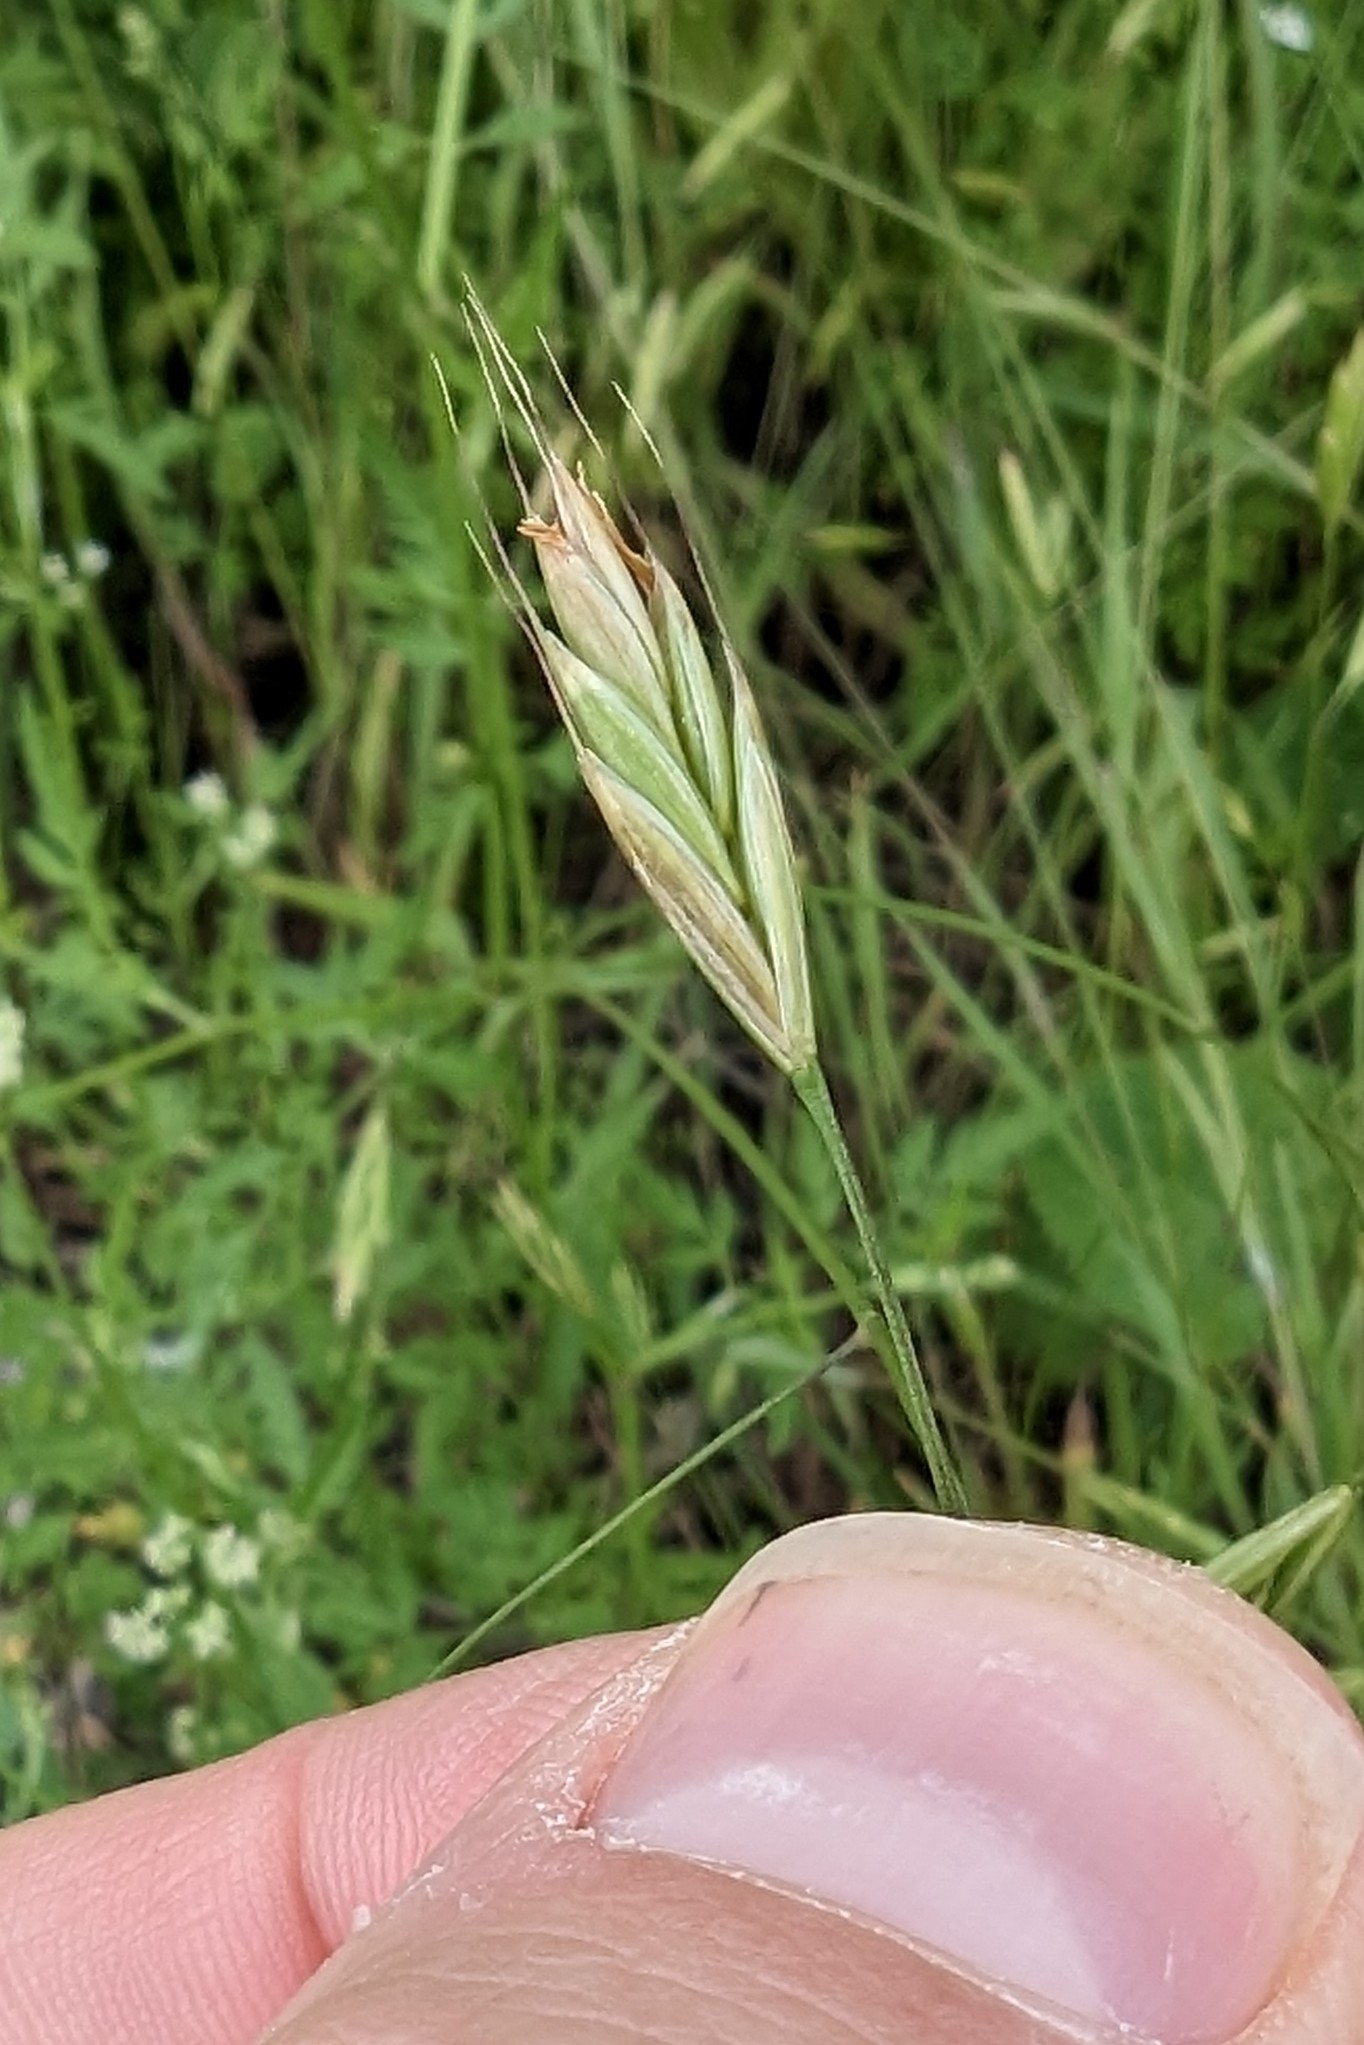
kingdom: Plantae
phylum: Tracheophyta
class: Liliopsida
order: Poales
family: Poaceae
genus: Bromus
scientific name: Bromus texensis
